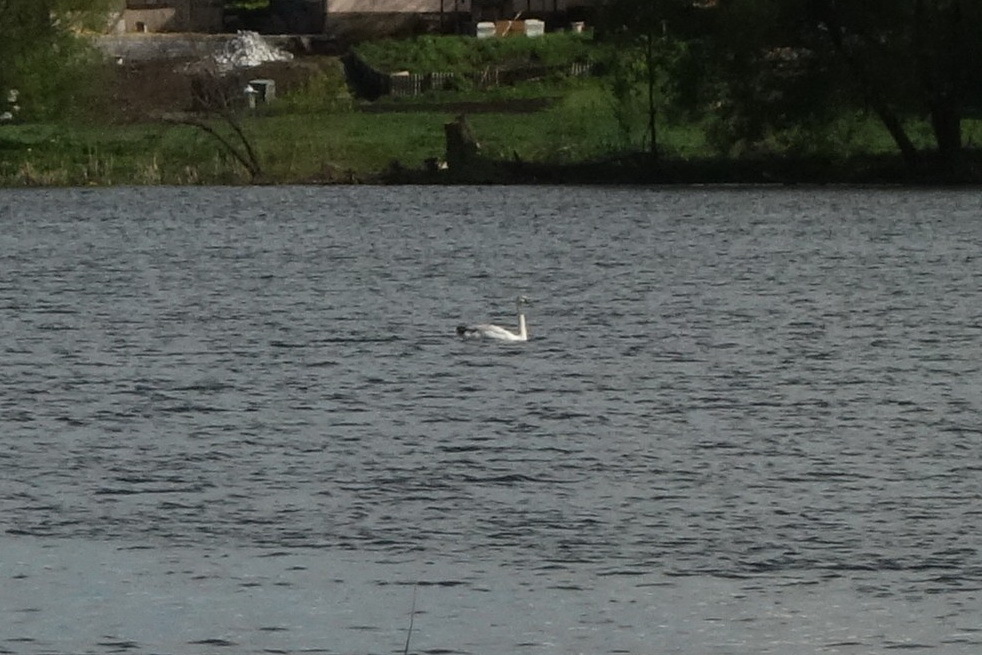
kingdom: Animalia
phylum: Chordata
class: Aves
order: Anseriformes
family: Anatidae
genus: Cygnus
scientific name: Cygnus olor
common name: Mute swan
